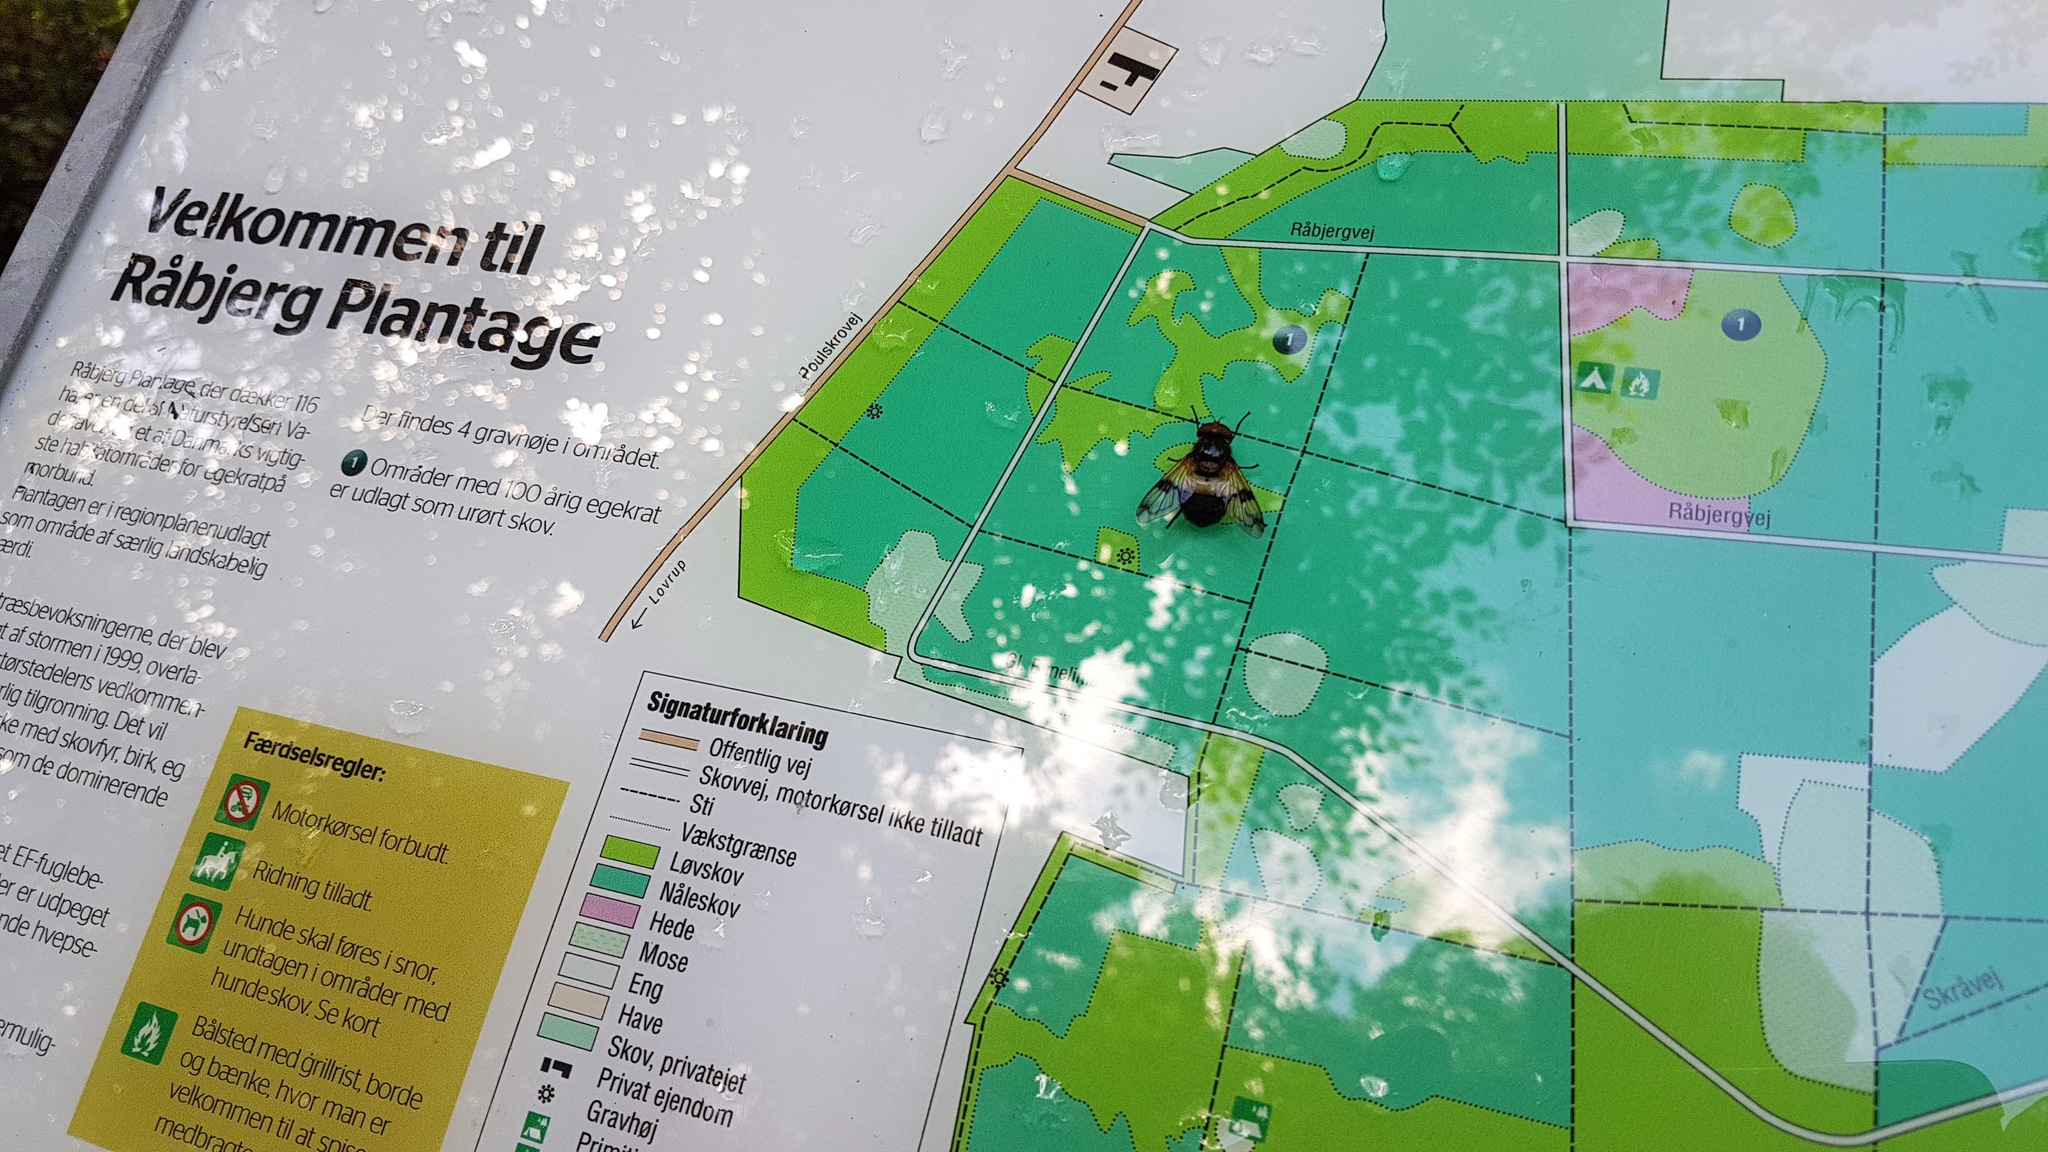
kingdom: Animalia
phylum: Arthropoda
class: Insecta
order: Diptera
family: Syrphidae
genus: Volucella
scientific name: Volucella pellucens
